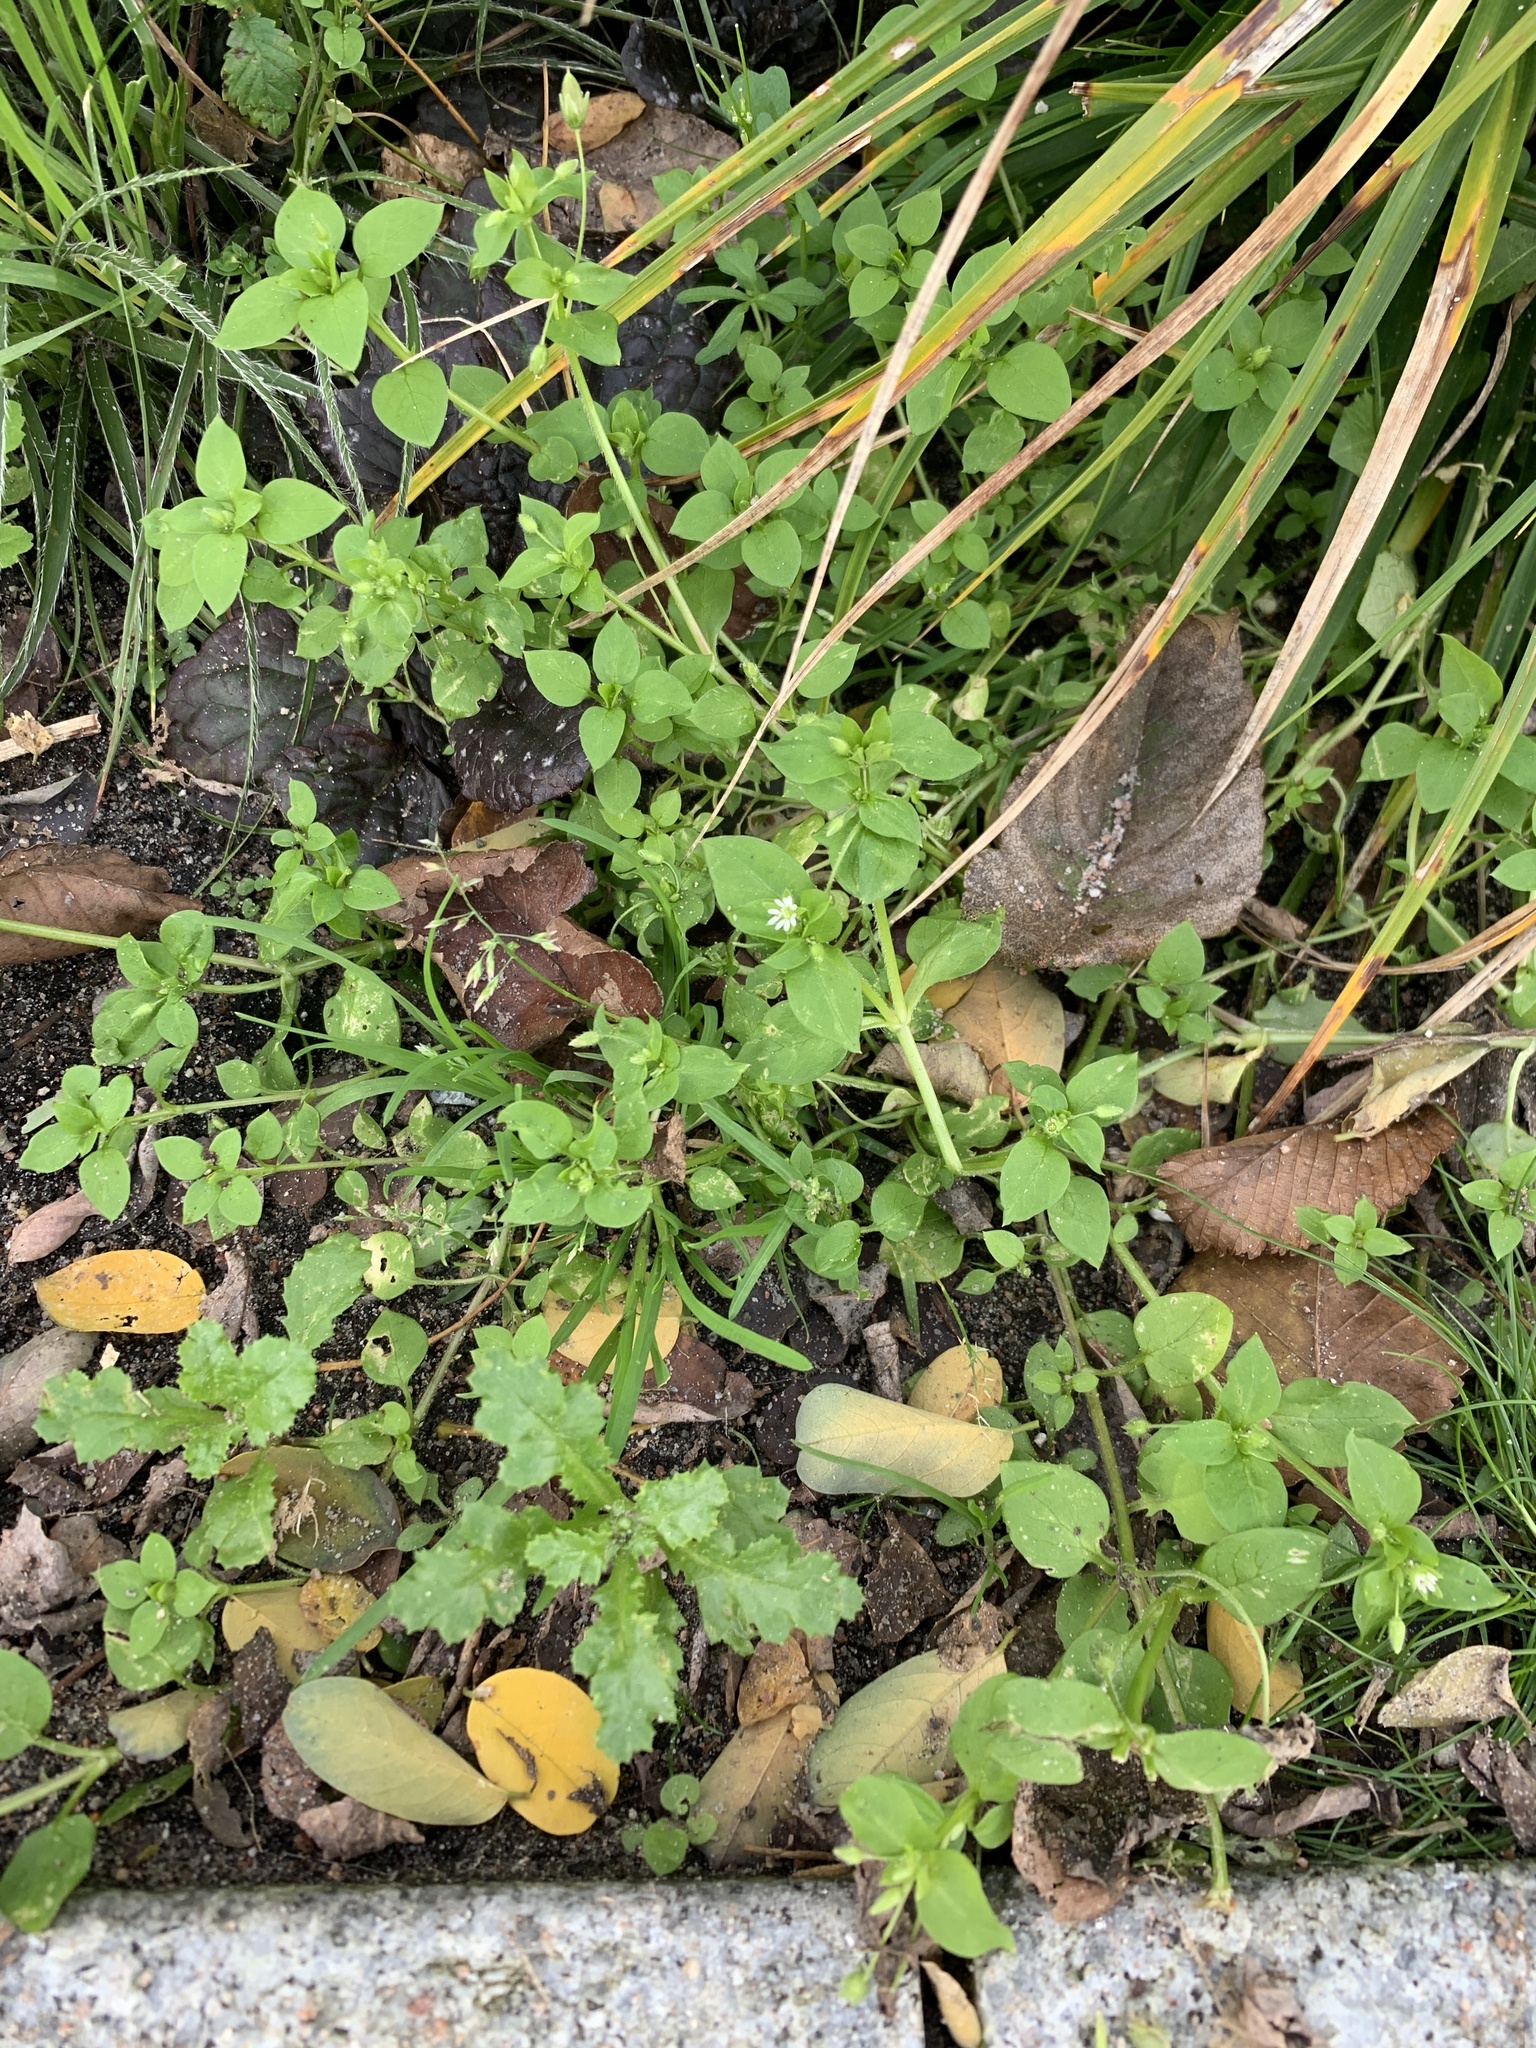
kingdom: Plantae
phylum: Tracheophyta
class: Magnoliopsida
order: Caryophyllales
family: Caryophyllaceae
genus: Stellaria
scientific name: Stellaria media
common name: Common chickweed
